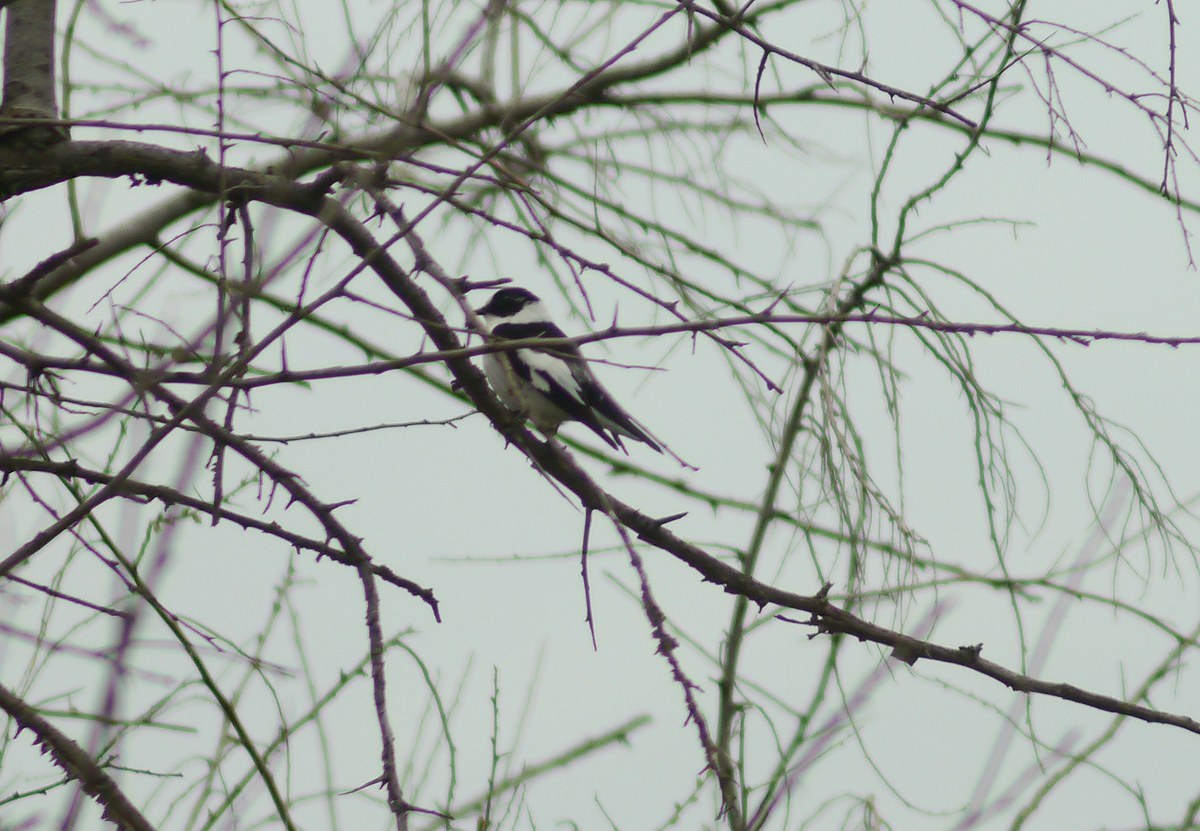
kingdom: Animalia
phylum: Chordata
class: Aves
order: Passeriformes
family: Muscicapidae
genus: Ficedula
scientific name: Ficedula albicollis
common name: Collared flycatcher
